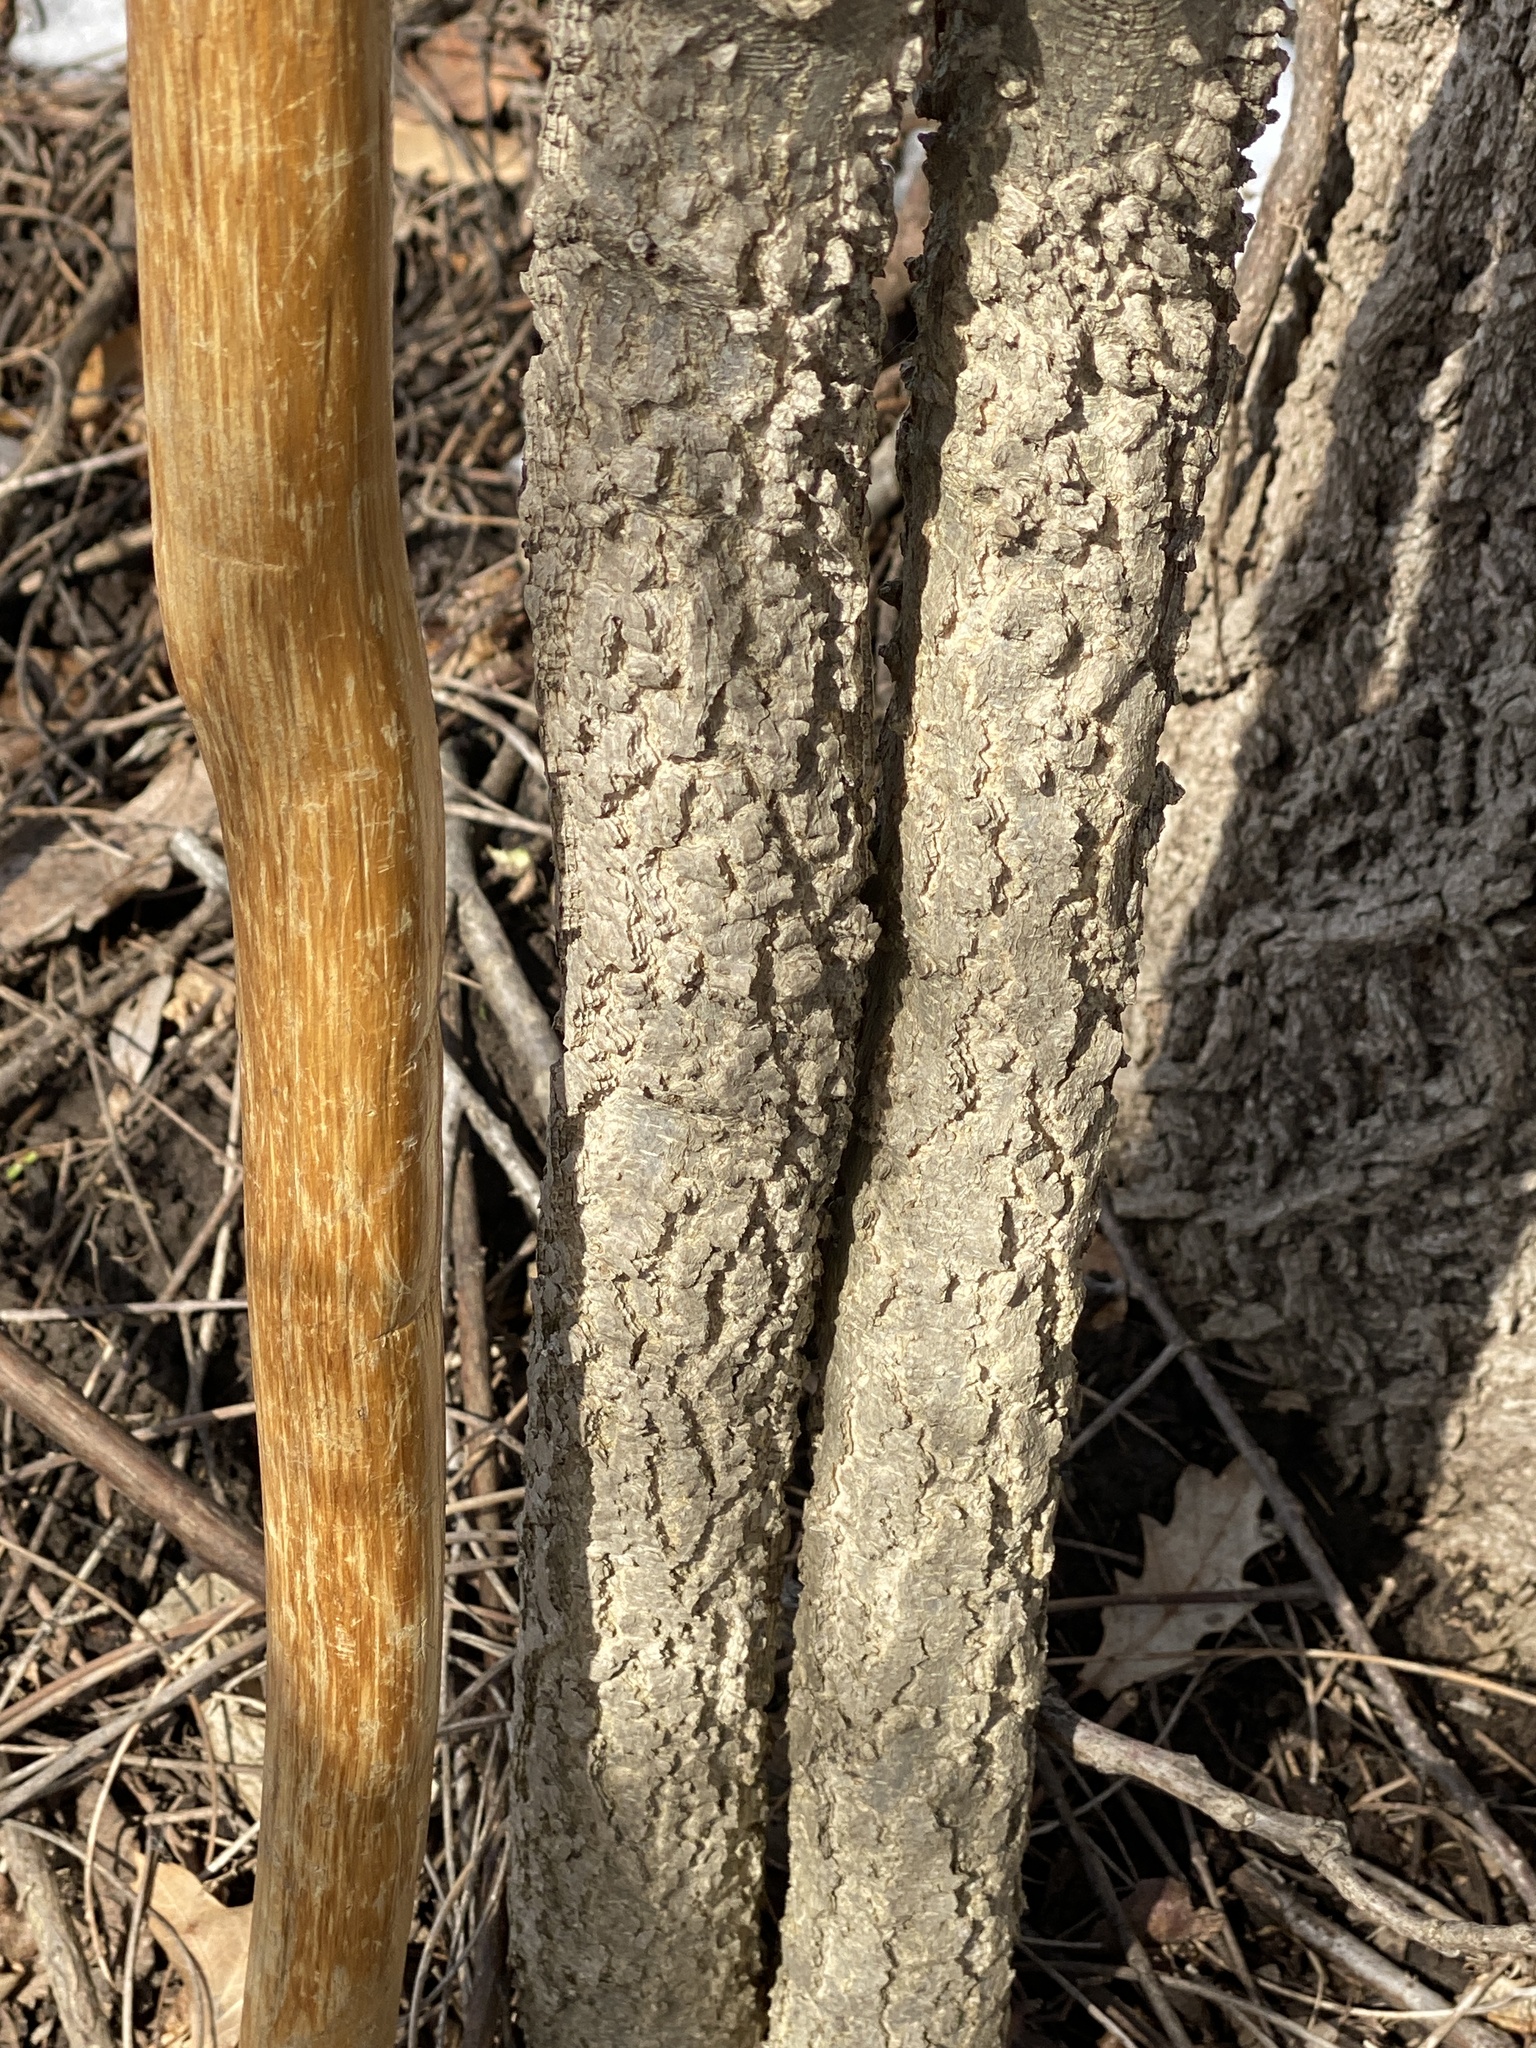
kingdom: Plantae
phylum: Tracheophyta
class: Magnoliopsida
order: Rosales
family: Cannabaceae
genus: Celtis
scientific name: Celtis occidentalis
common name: Common hackberry
